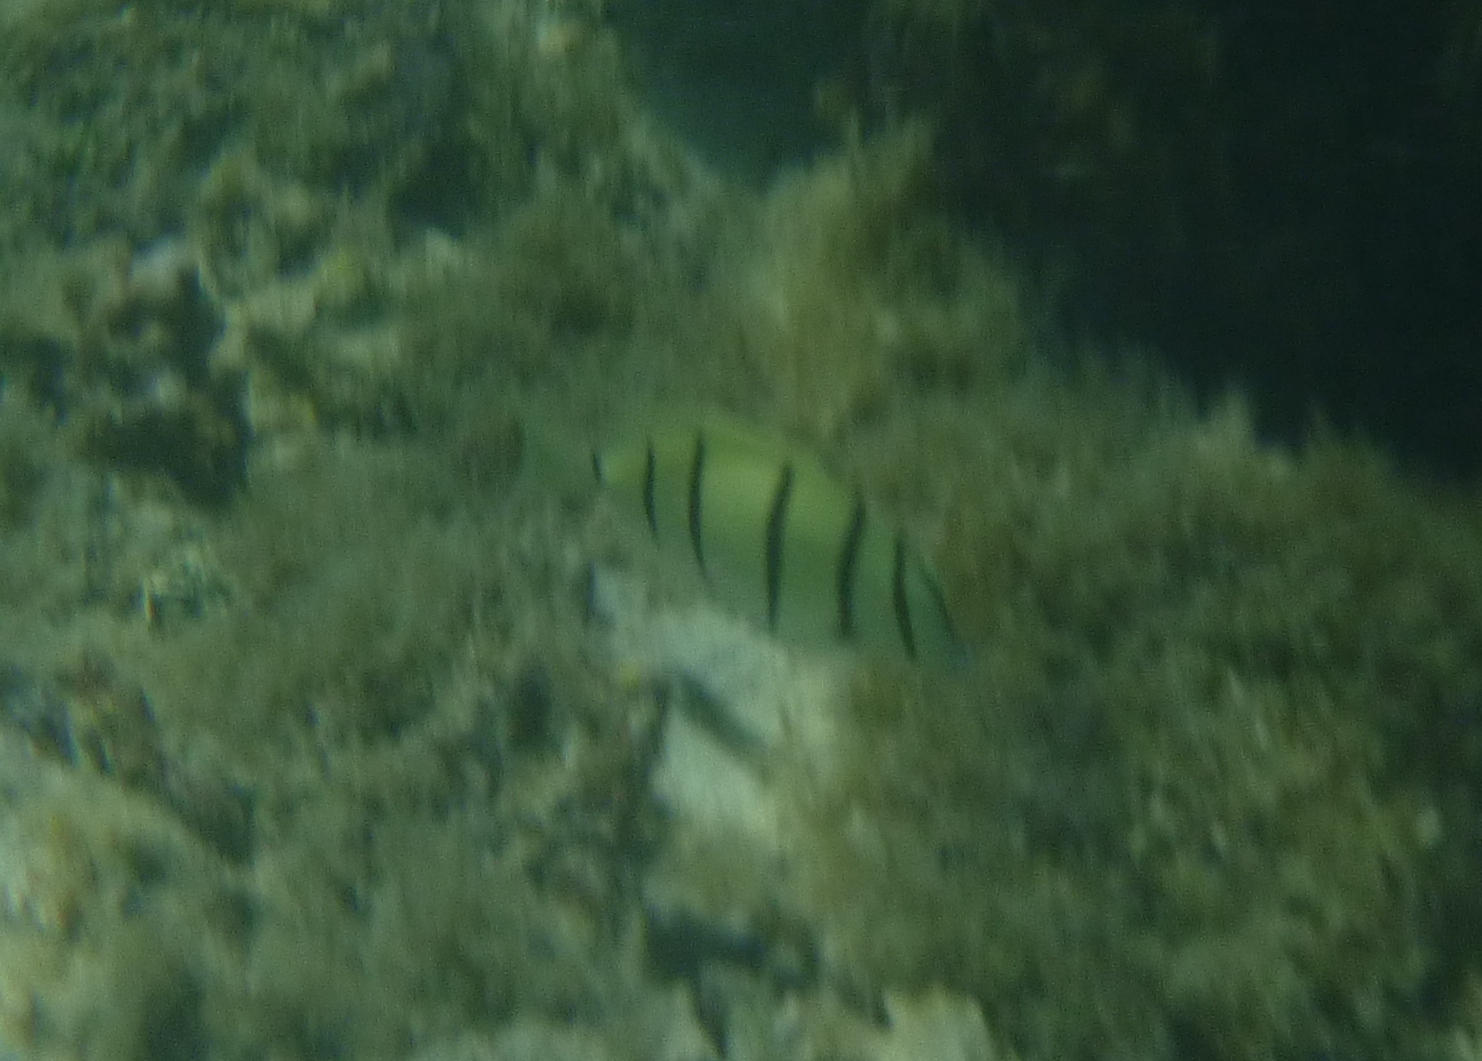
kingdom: Animalia
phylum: Chordata
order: Perciformes
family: Acanthuridae
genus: Acanthurus
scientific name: Acanthurus triostegus
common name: Convict surgeonfish
